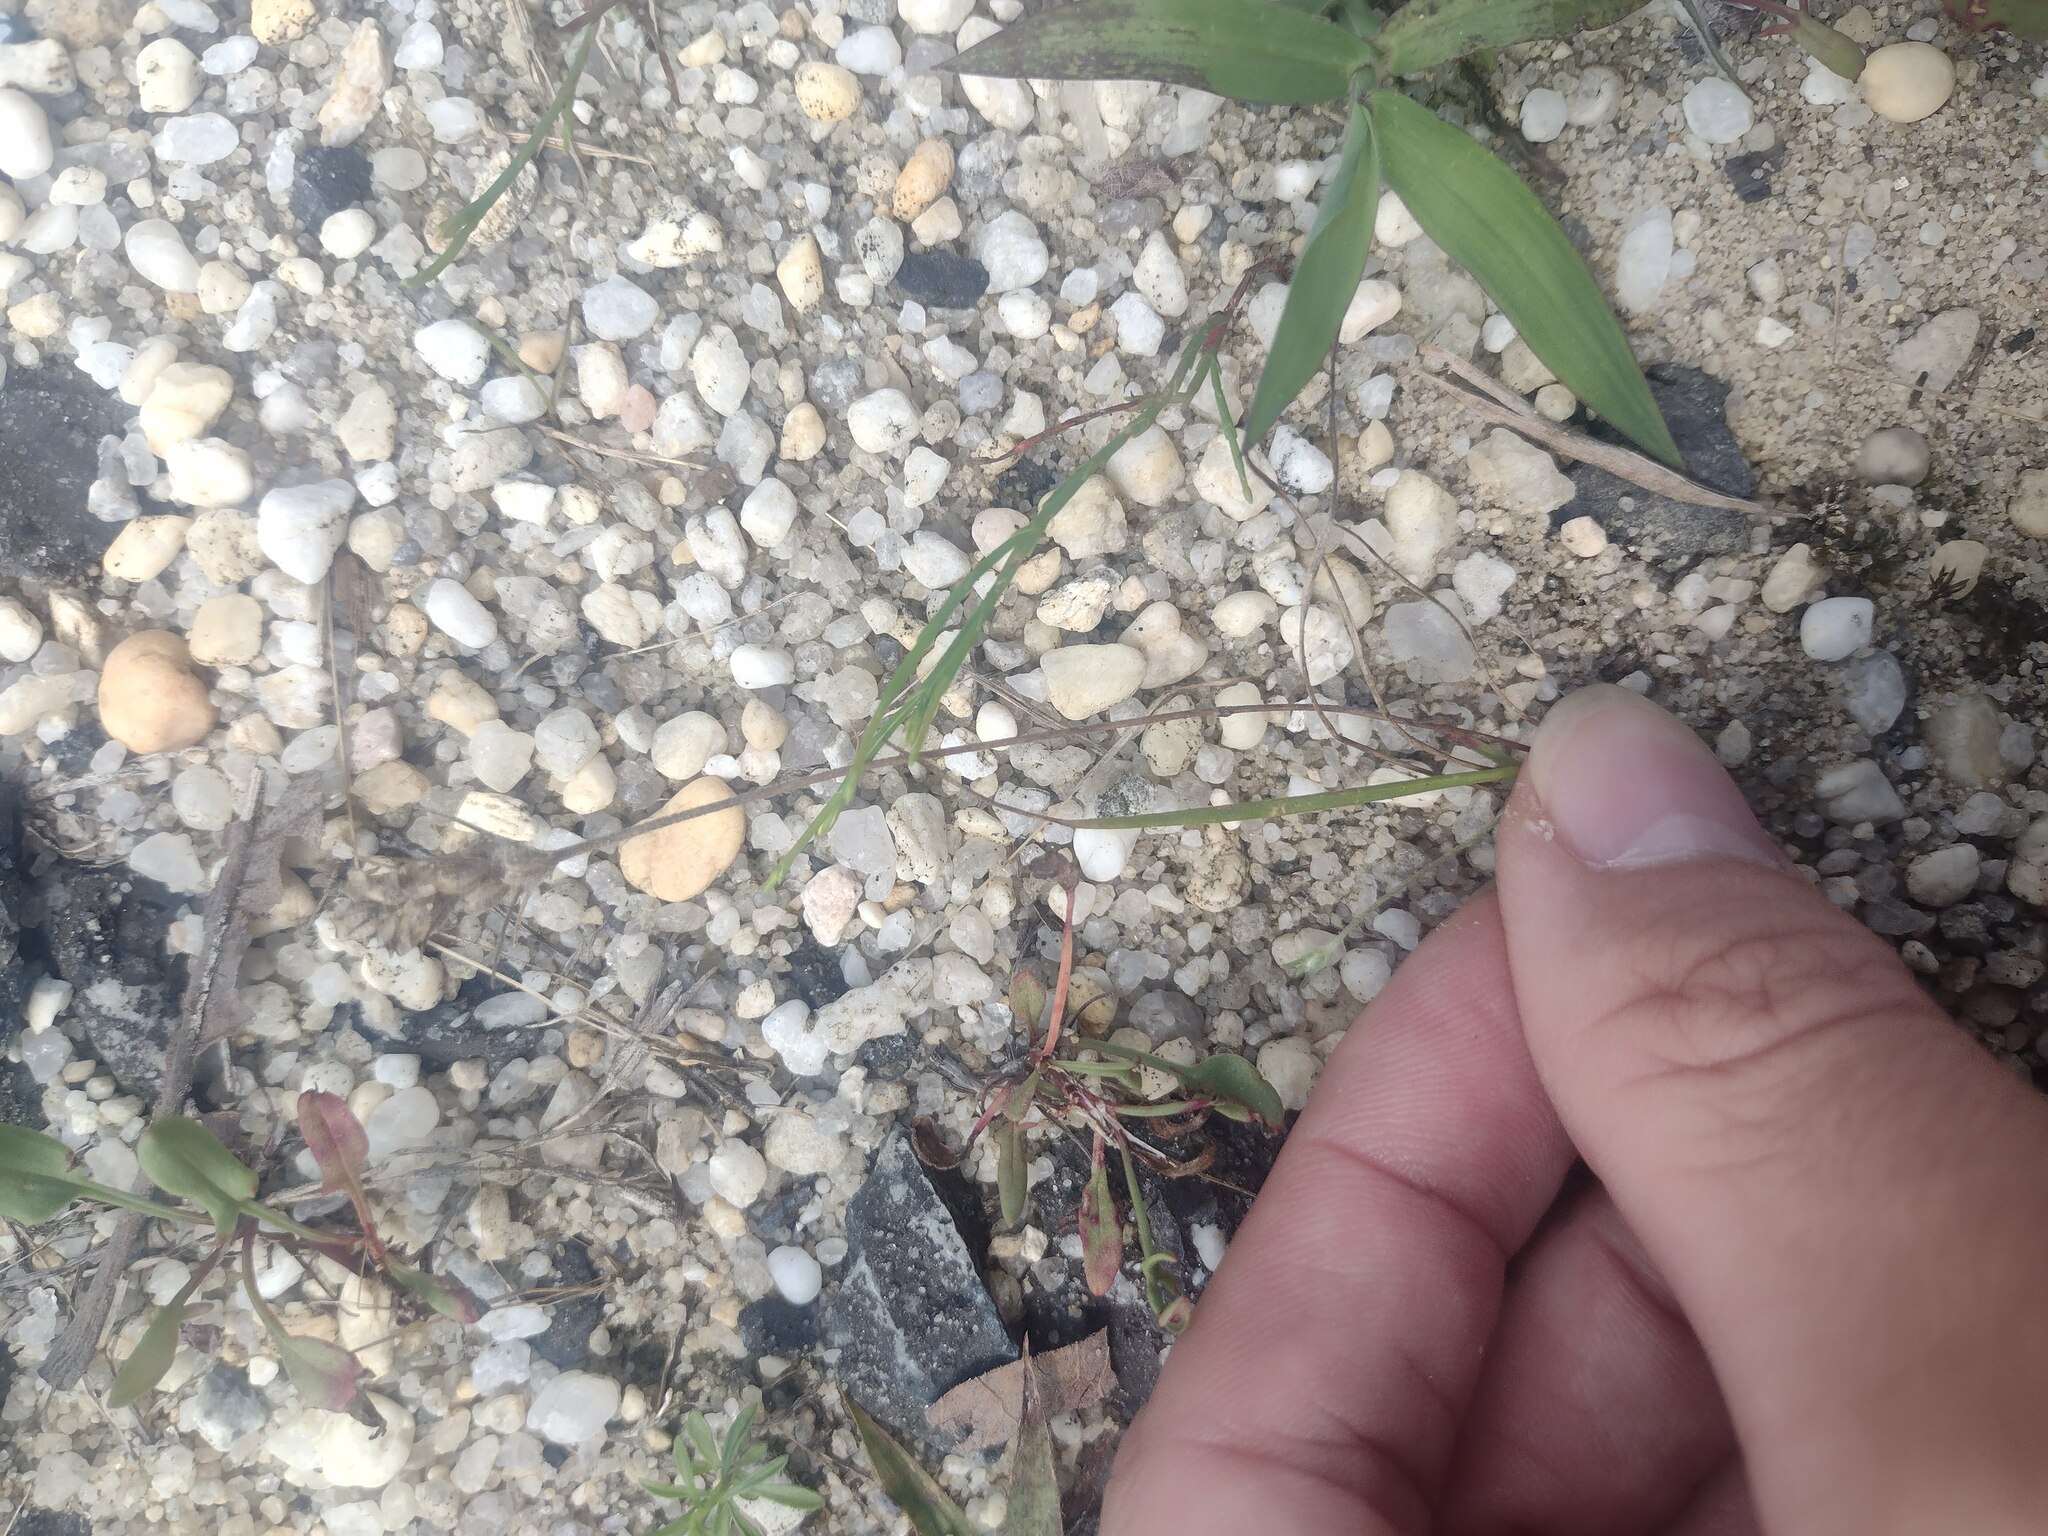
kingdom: Plantae
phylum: Tracheophyta
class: Magnoliopsida
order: Lamiales
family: Plantaginaceae
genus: Plantago
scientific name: Plantago aristata
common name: Bracted plantain
